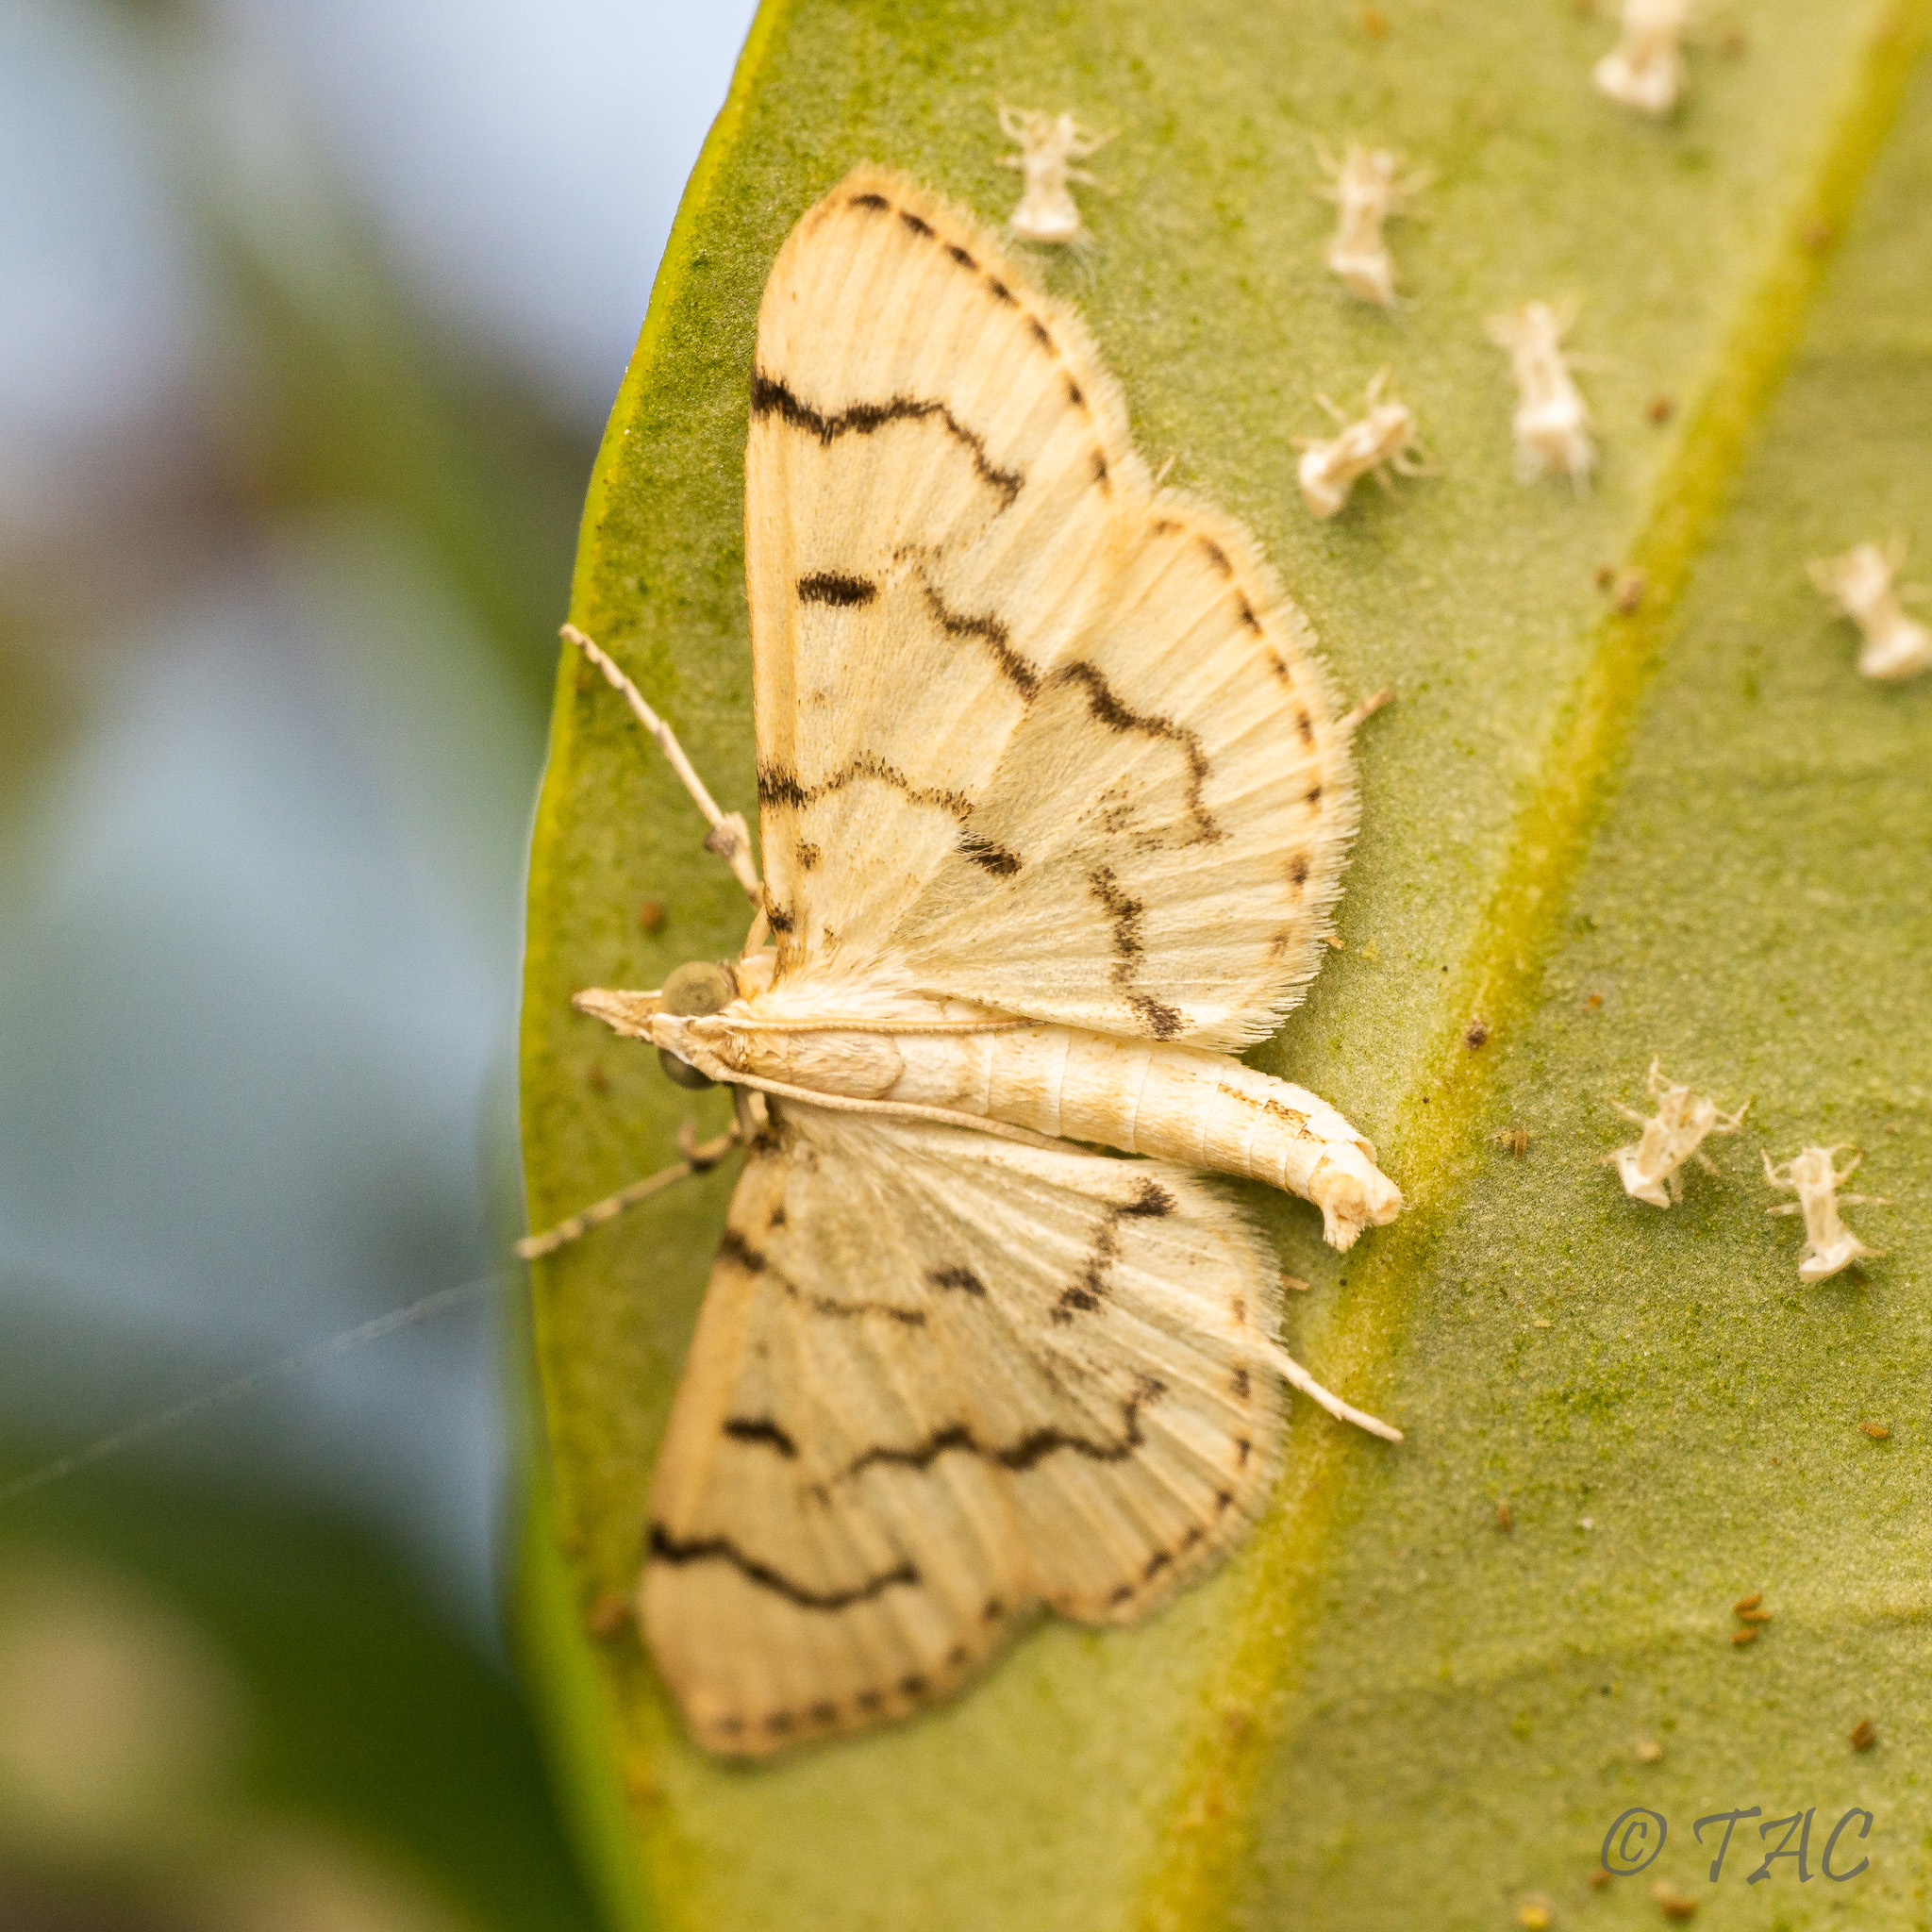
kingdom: Animalia
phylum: Arthropoda
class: Insecta
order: Lepidoptera
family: Crambidae
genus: Lamprosema
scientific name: Lamprosema Blepharomastix achroalis
